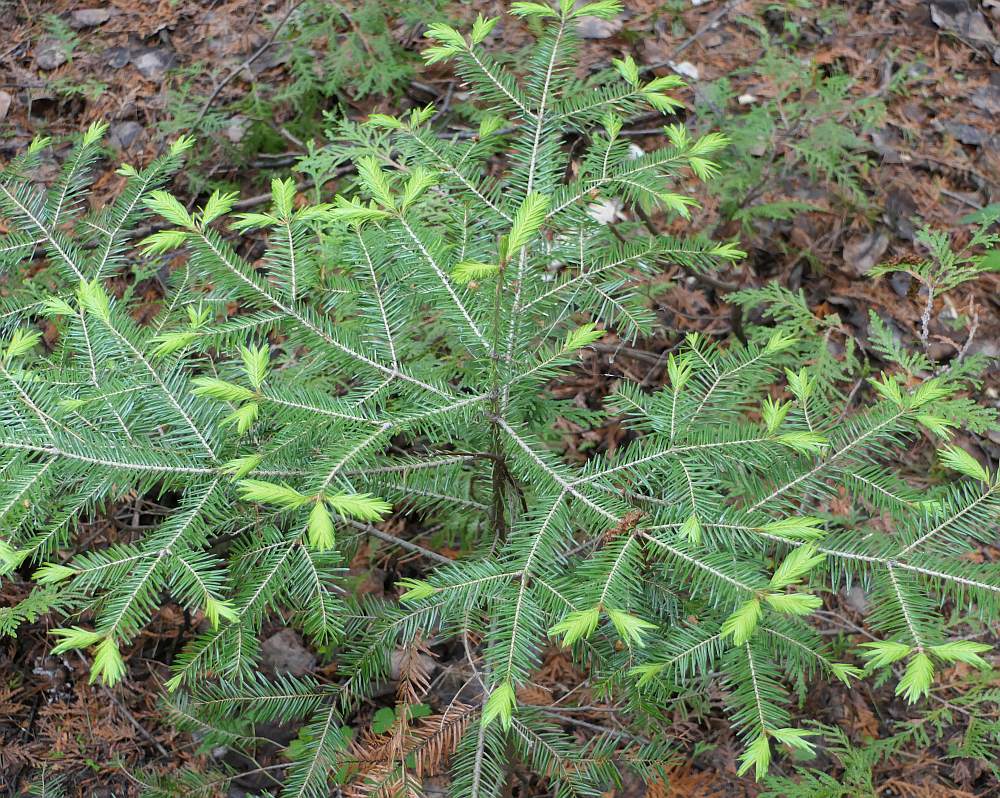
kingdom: Plantae
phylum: Tracheophyta
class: Pinopsida
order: Pinales
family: Pinaceae
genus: Abies
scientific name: Abies balsamea
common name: Balsam fir
